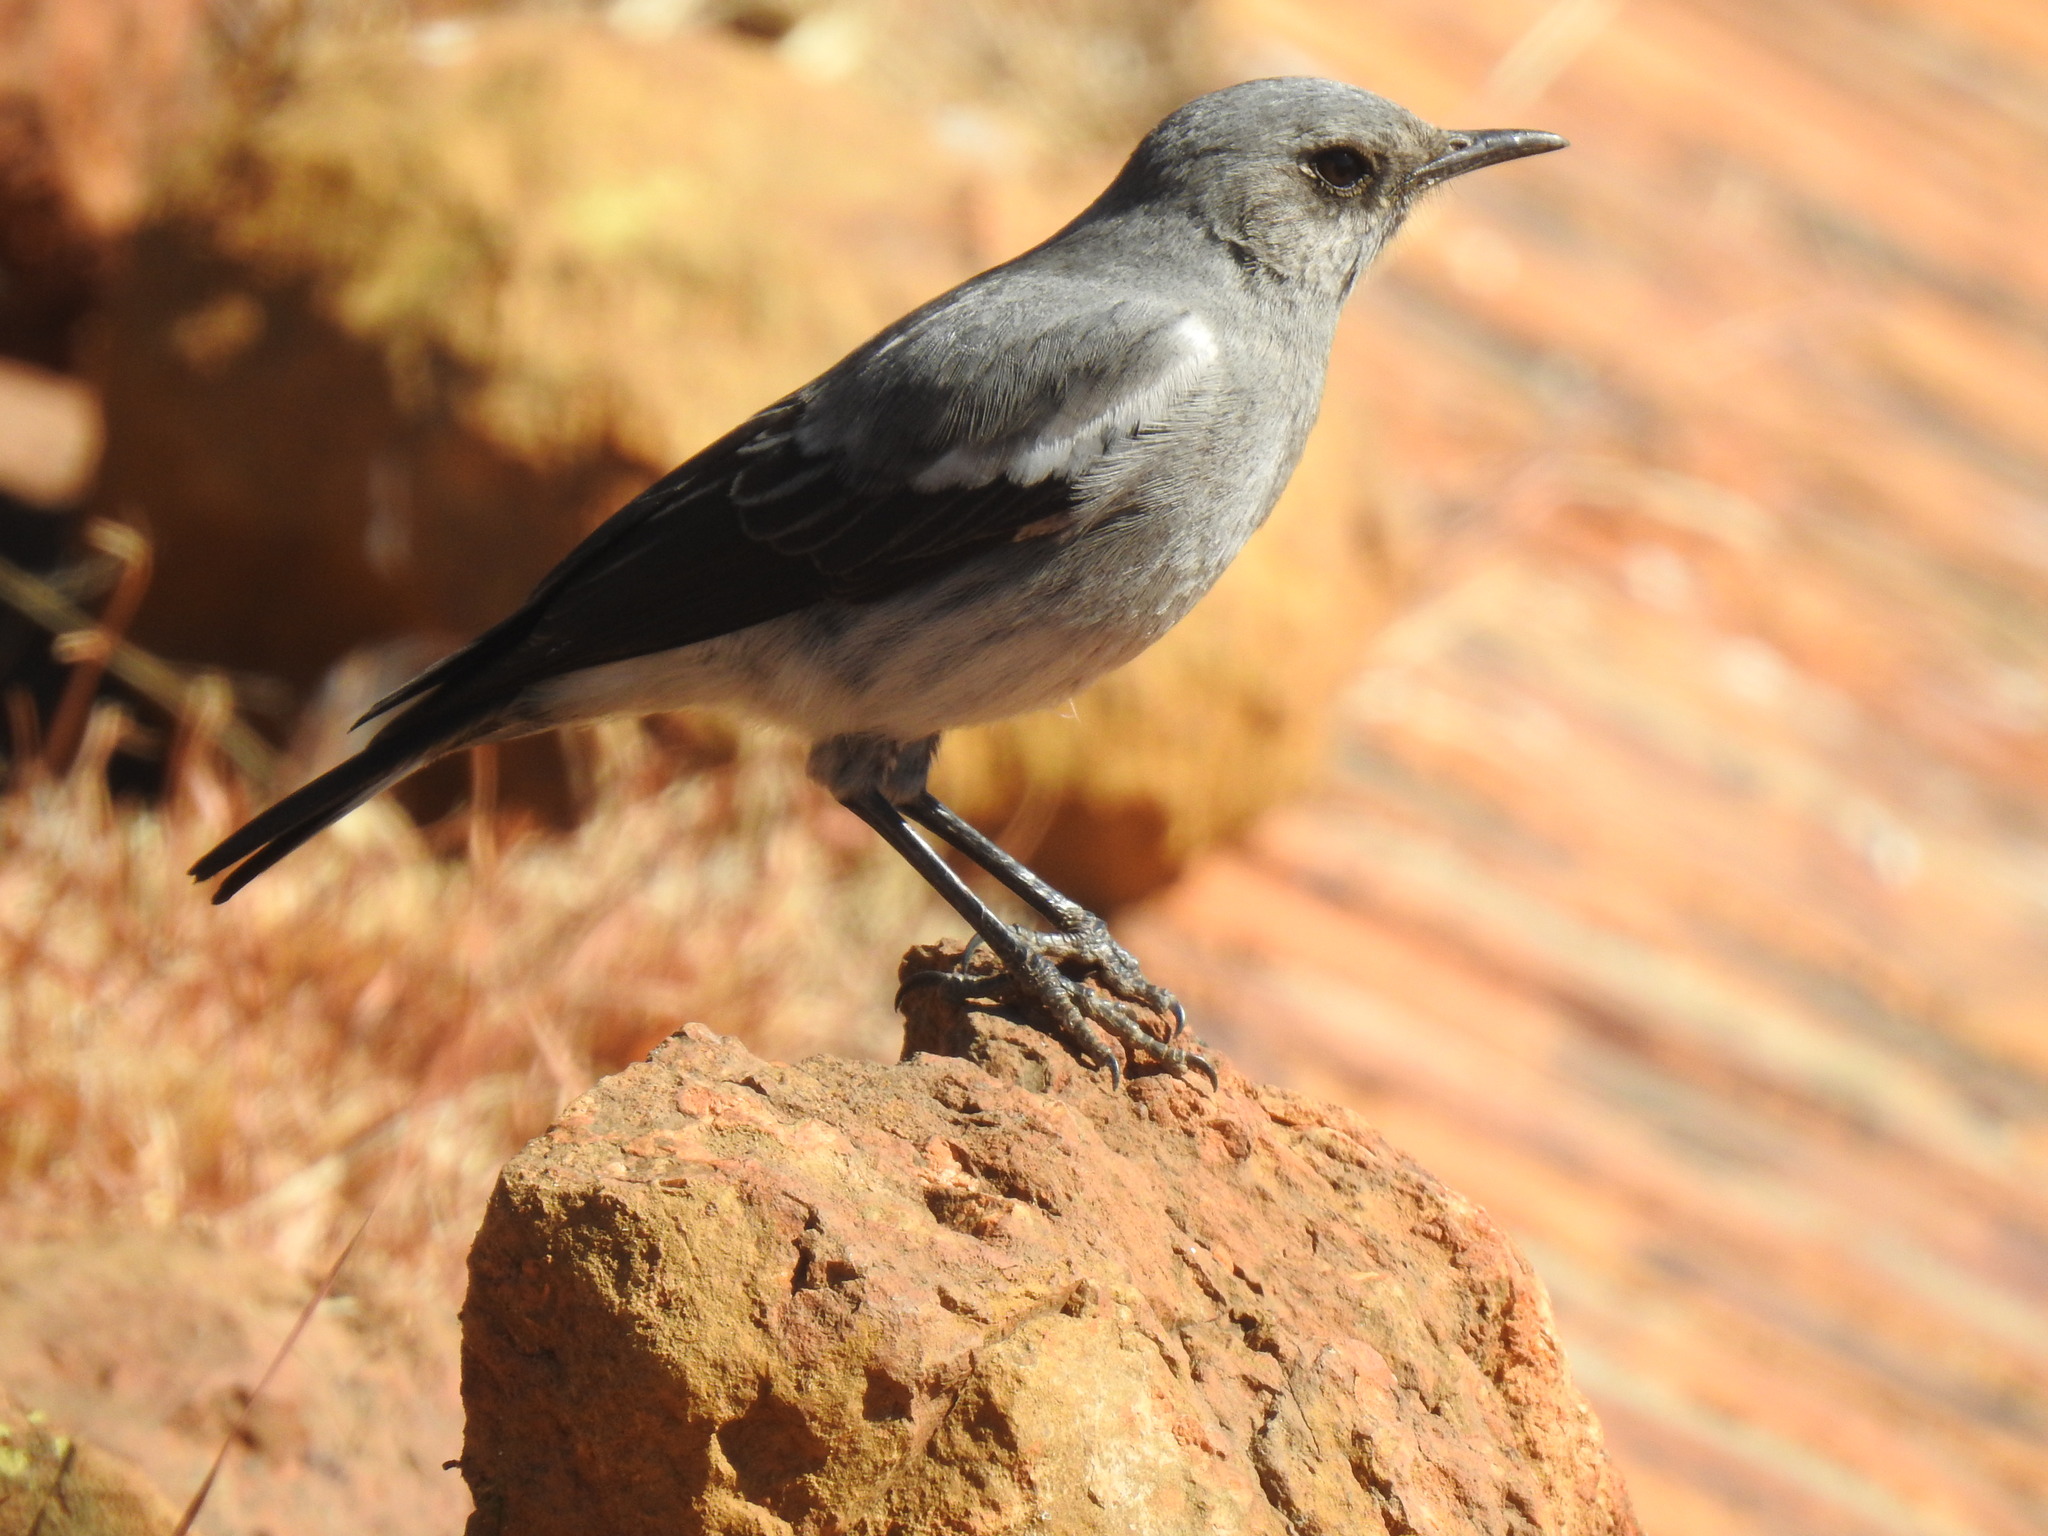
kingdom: Animalia
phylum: Chordata
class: Aves
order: Passeriformes
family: Muscicapidae
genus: Oenanthe
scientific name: Oenanthe monticola
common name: Mountain wheatear
